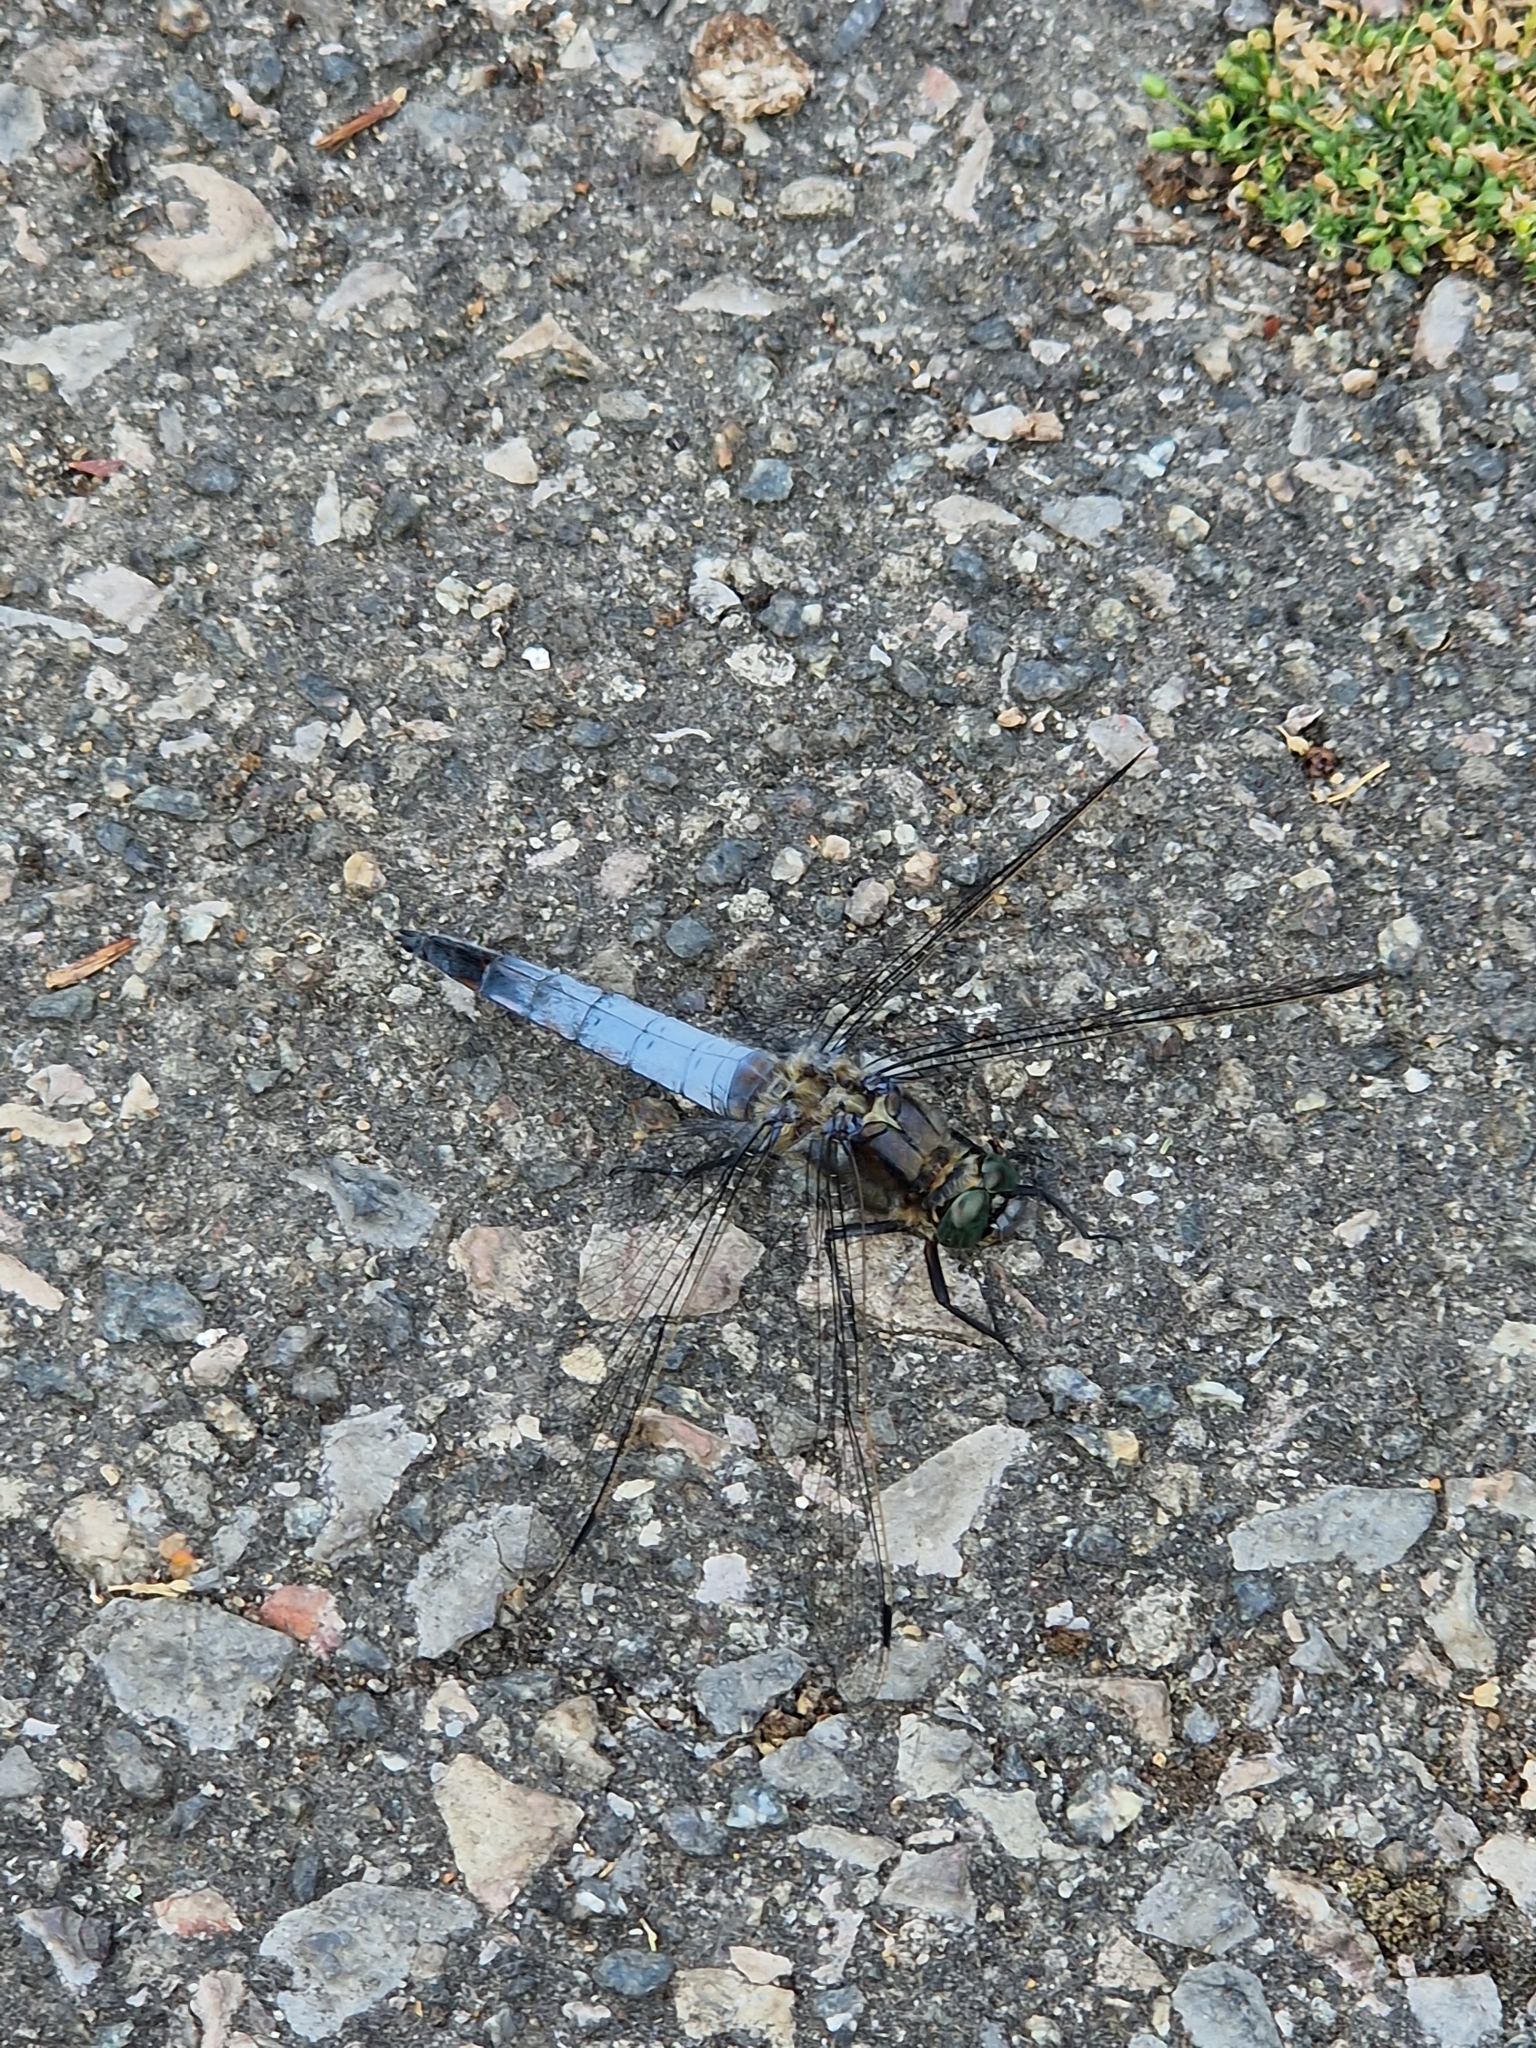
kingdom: Animalia
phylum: Arthropoda
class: Insecta
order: Odonata
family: Libellulidae
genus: Orthetrum
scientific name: Orthetrum cancellatum
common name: Black-tailed skimmer
